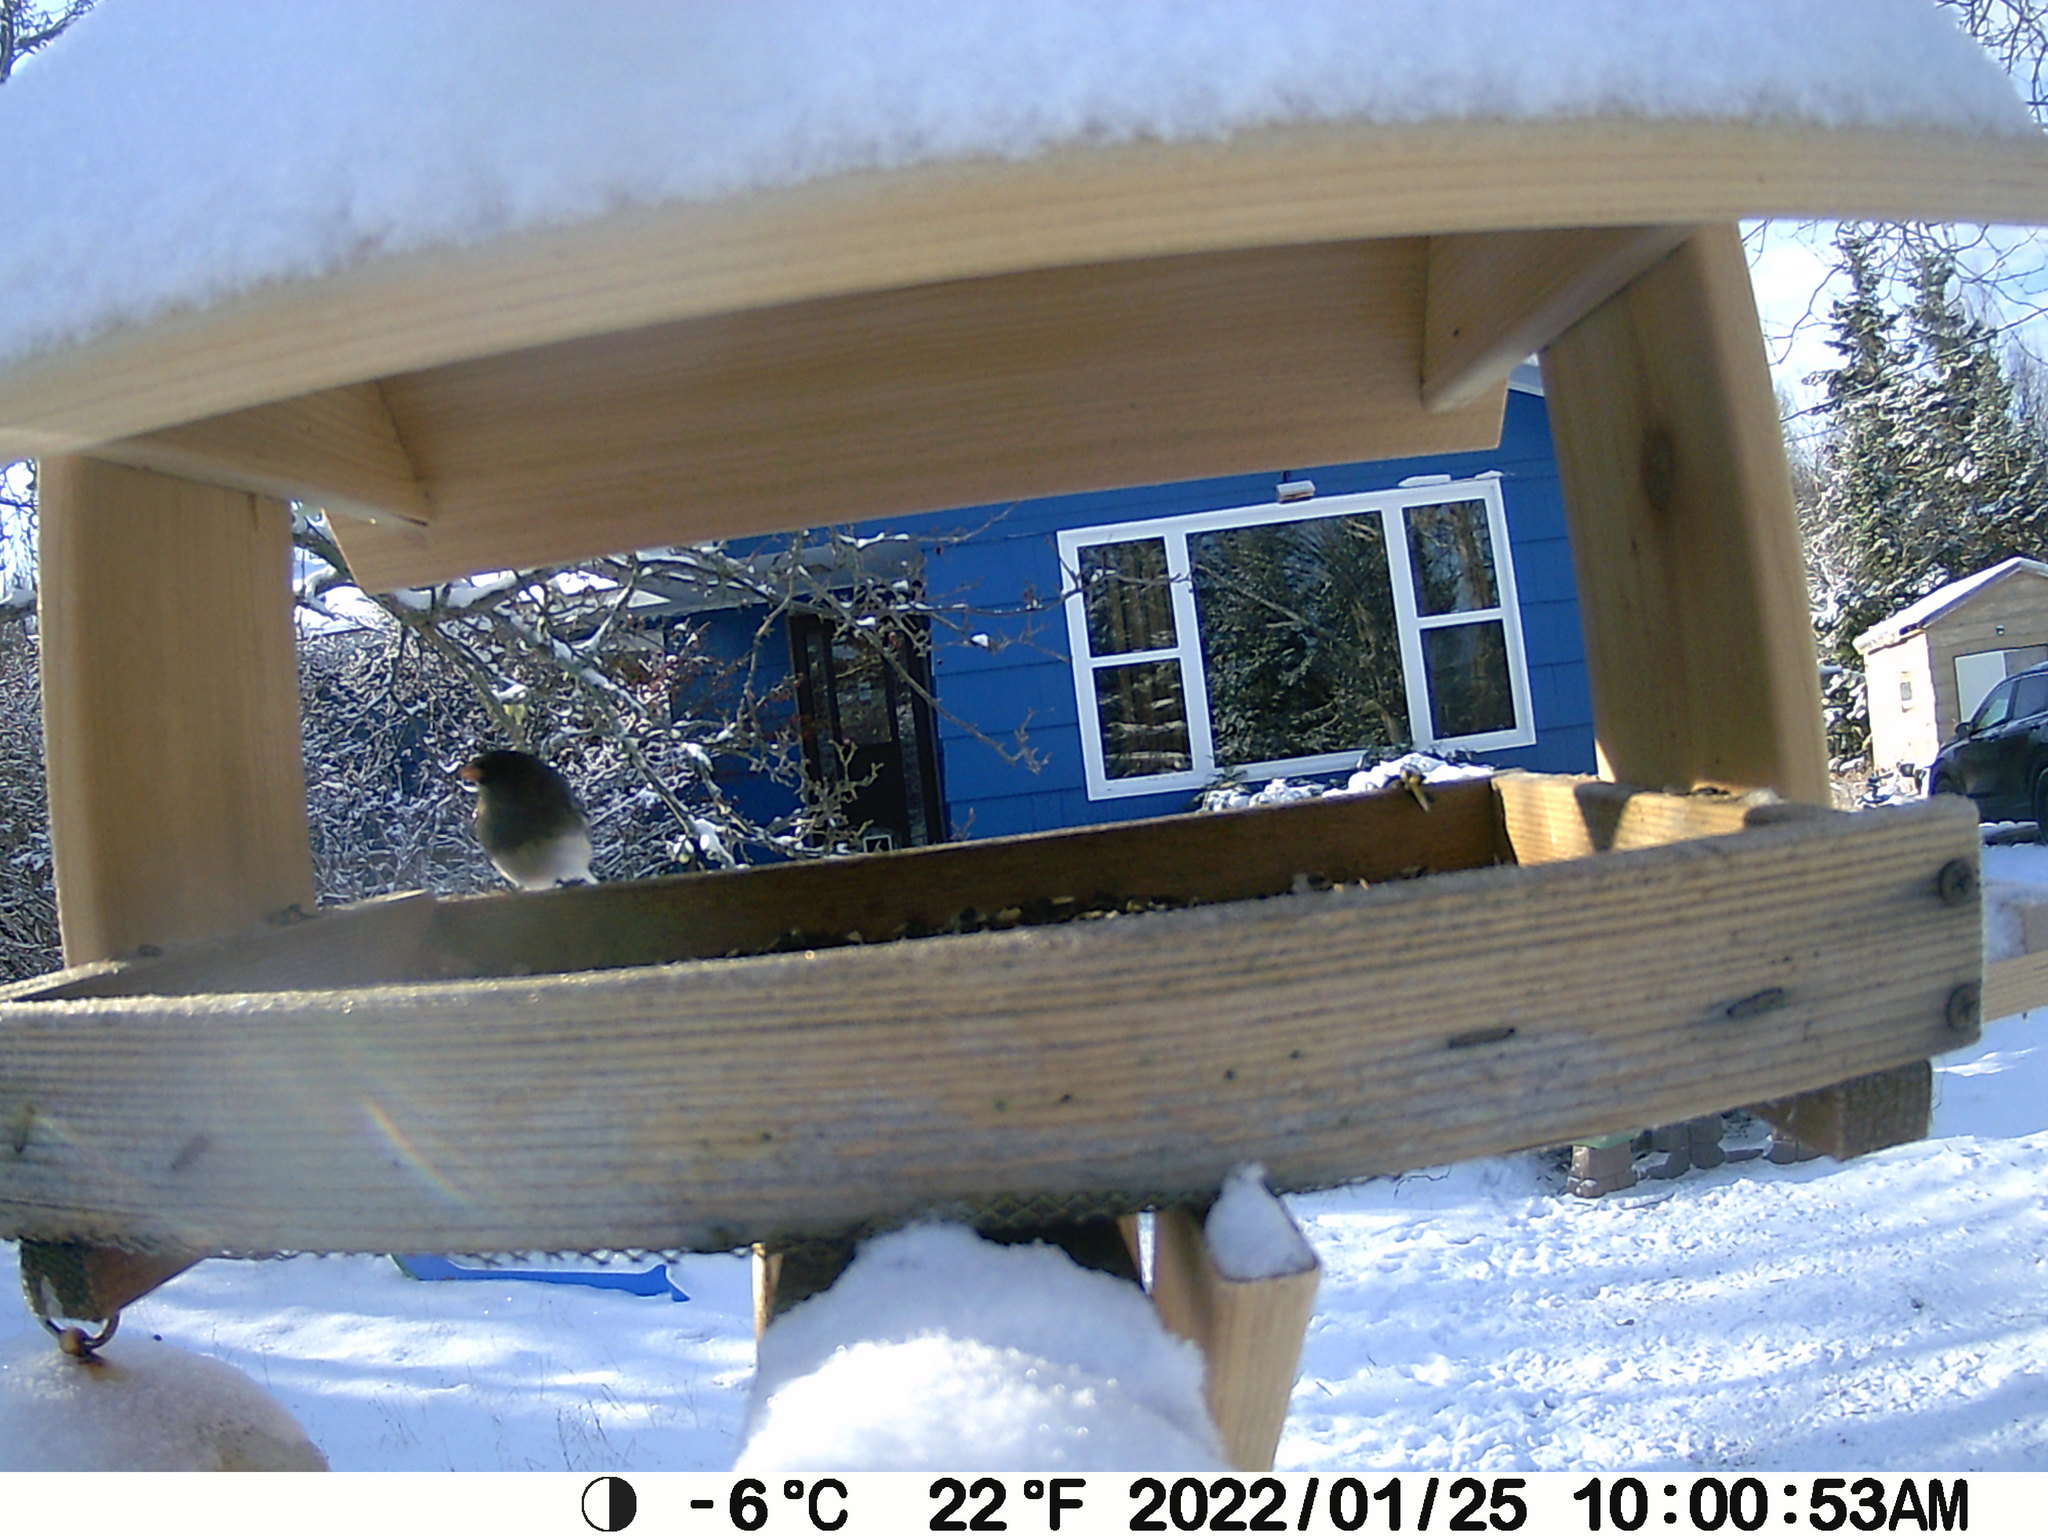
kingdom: Animalia
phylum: Chordata
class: Aves
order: Passeriformes
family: Passerellidae
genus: Junco
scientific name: Junco hyemalis
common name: Dark-eyed junco
